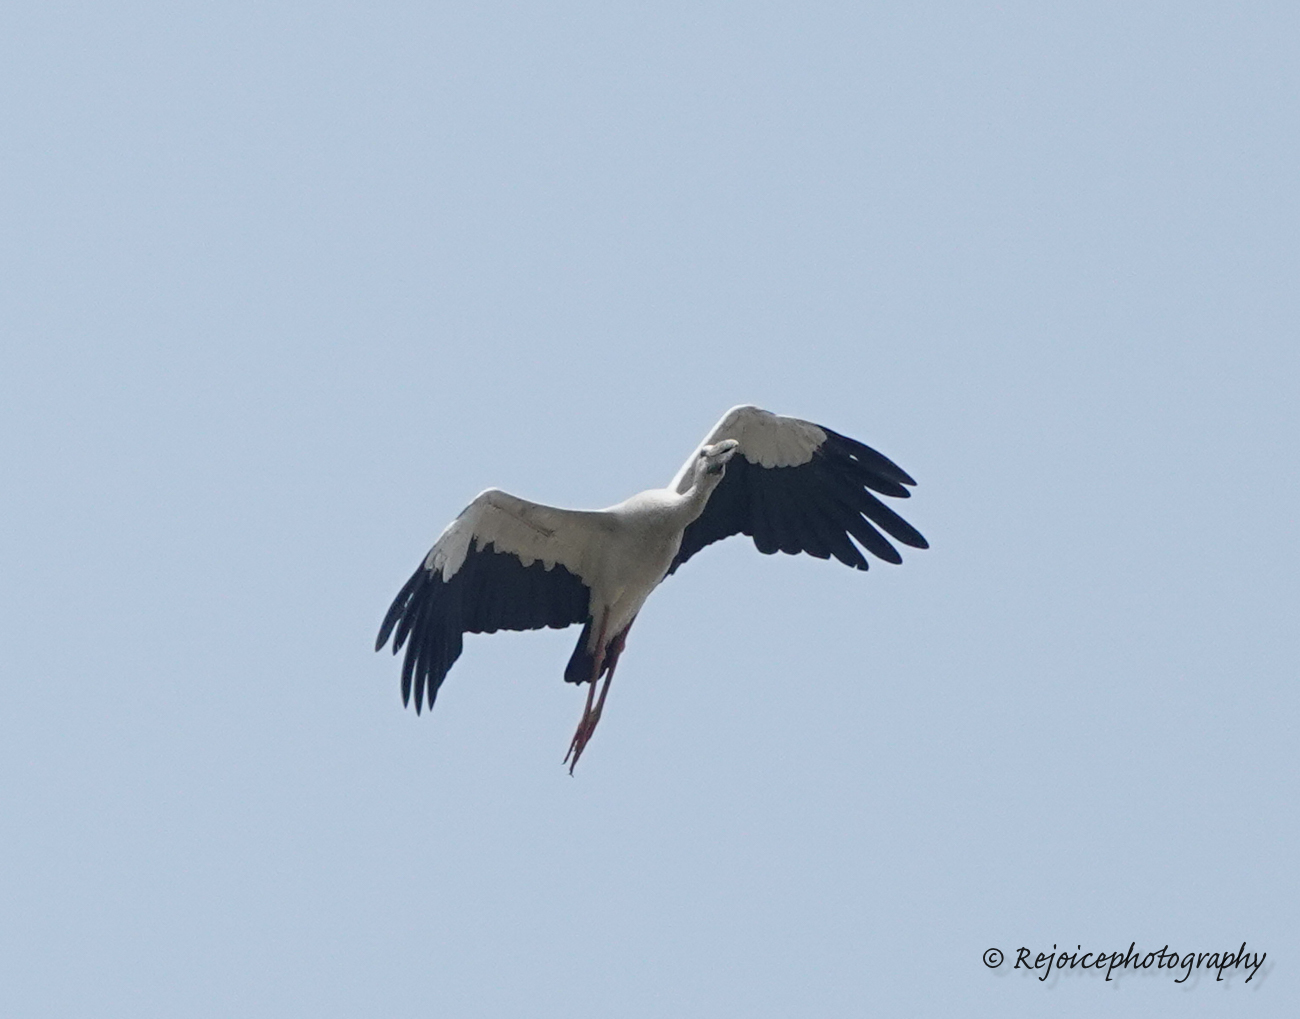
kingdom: Animalia
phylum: Chordata
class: Aves
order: Ciconiiformes
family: Ciconiidae
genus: Anastomus
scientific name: Anastomus oscitans
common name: Asian openbill
